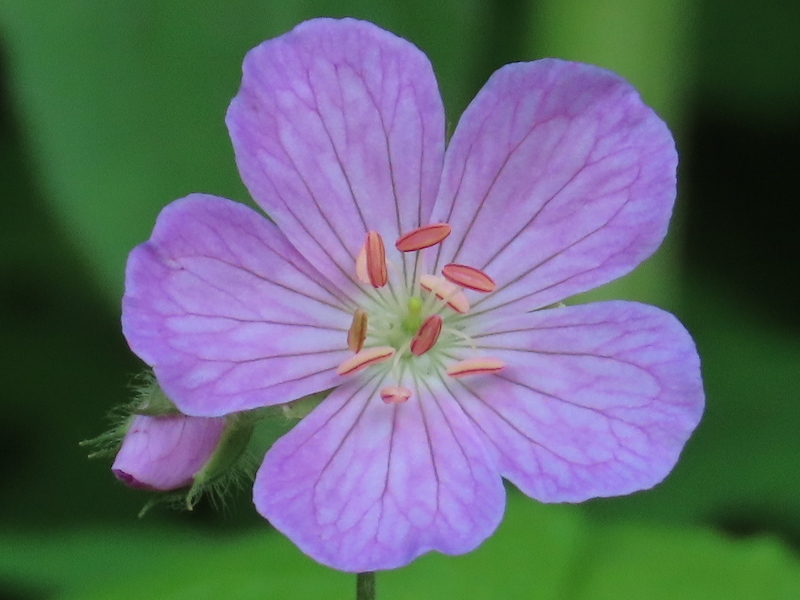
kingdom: Plantae
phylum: Tracheophyta
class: Magnoliopsida
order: Geraniales
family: Geraniaceae
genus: Geranium
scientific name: Geranium maculatum
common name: Spotted geranium
